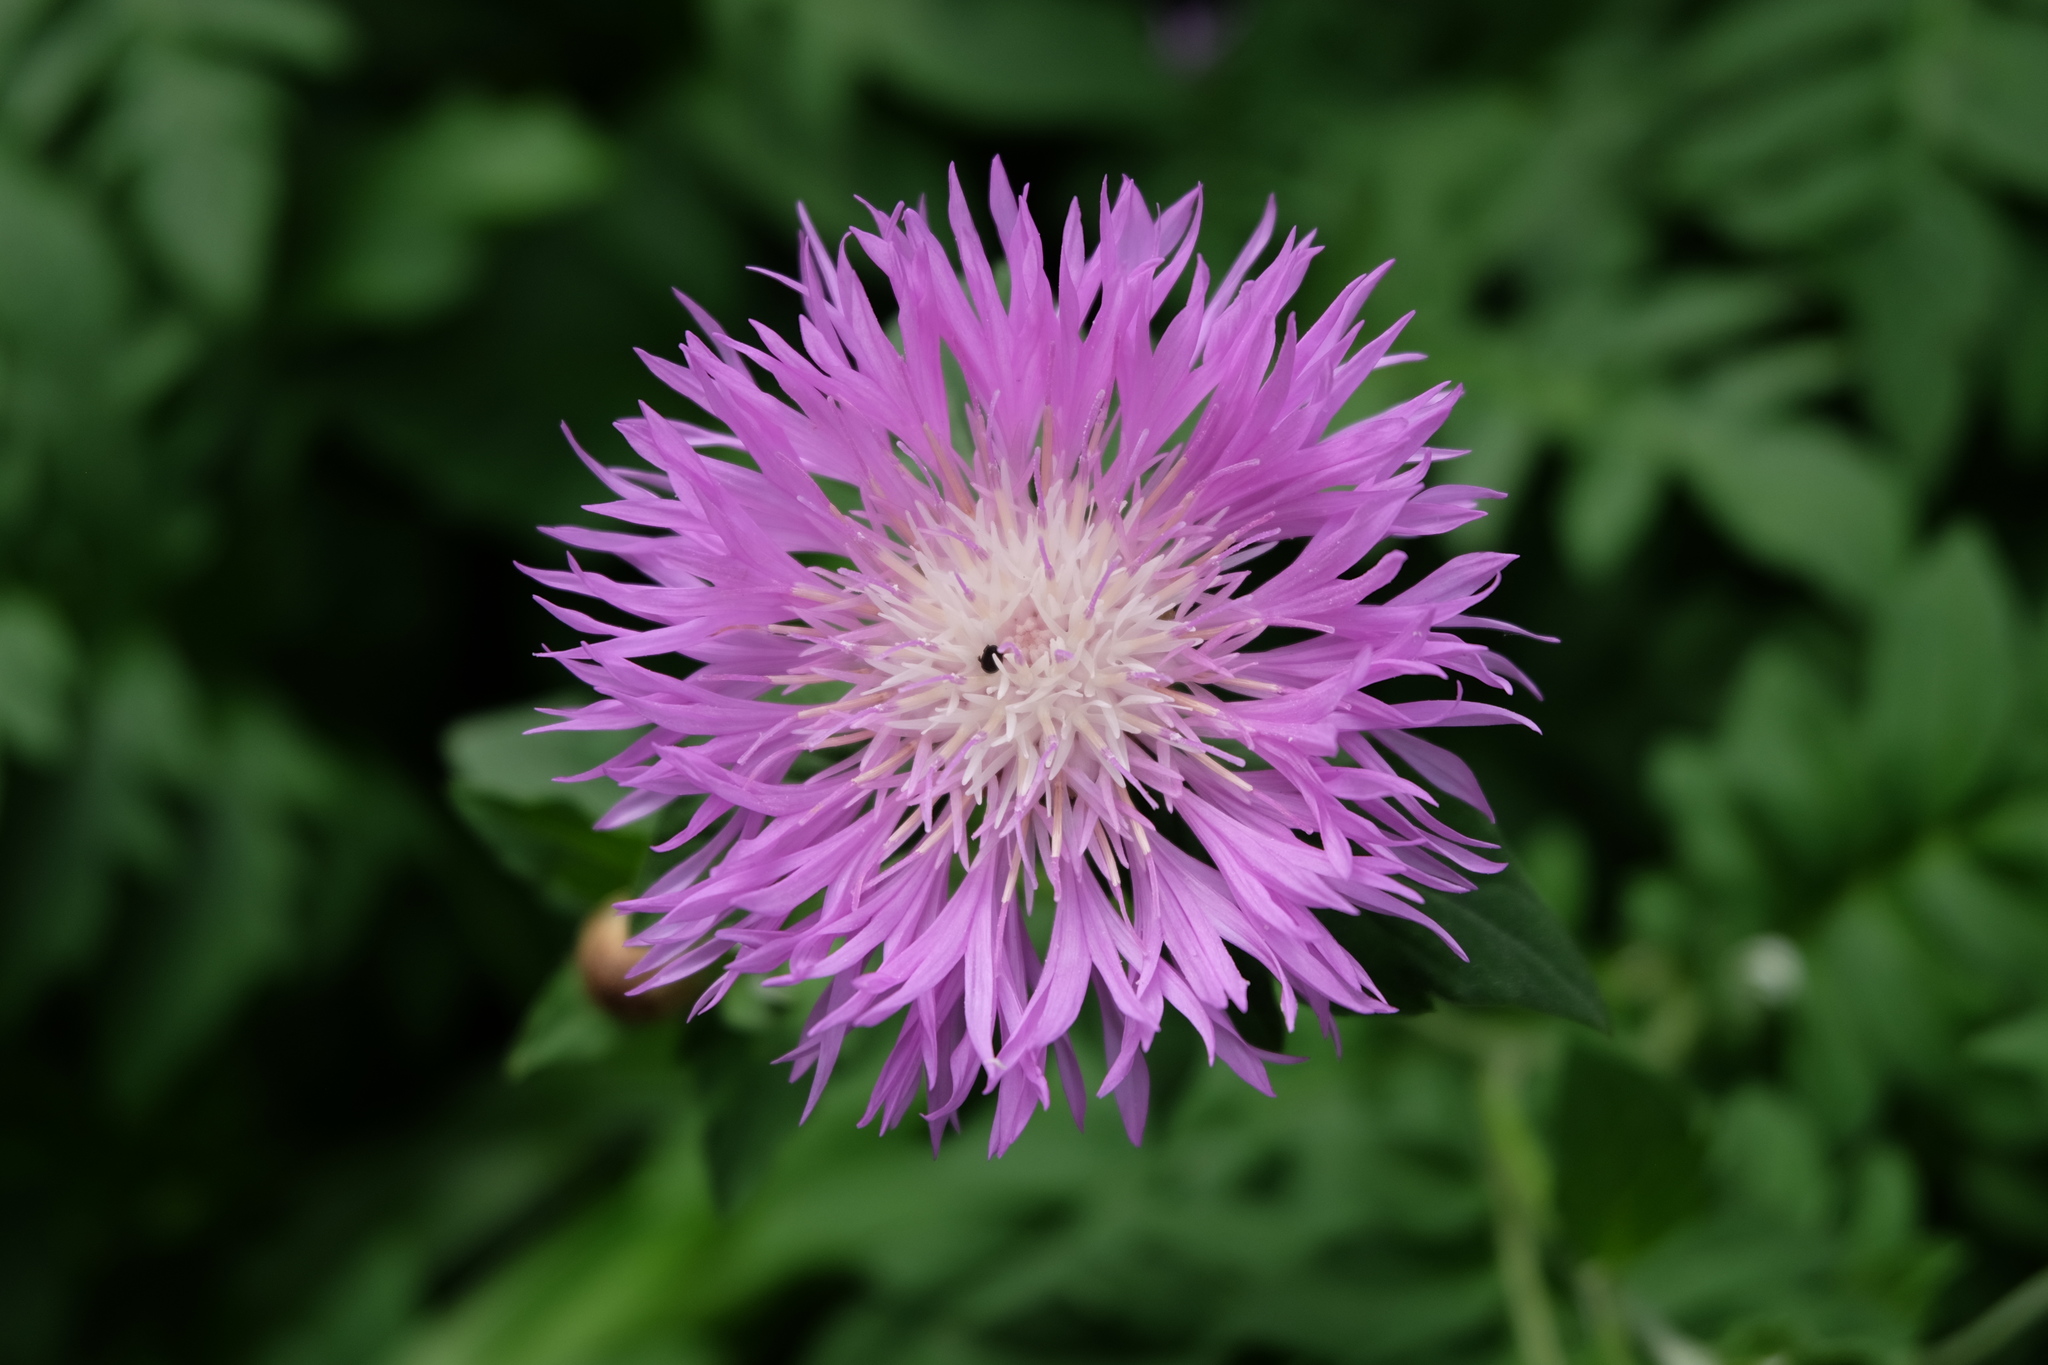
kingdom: Plantae
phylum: Tracheophyta
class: Magnoliopsida
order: Asterales
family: Asteraceae
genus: Psephellus
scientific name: Psephellus dealbatus
